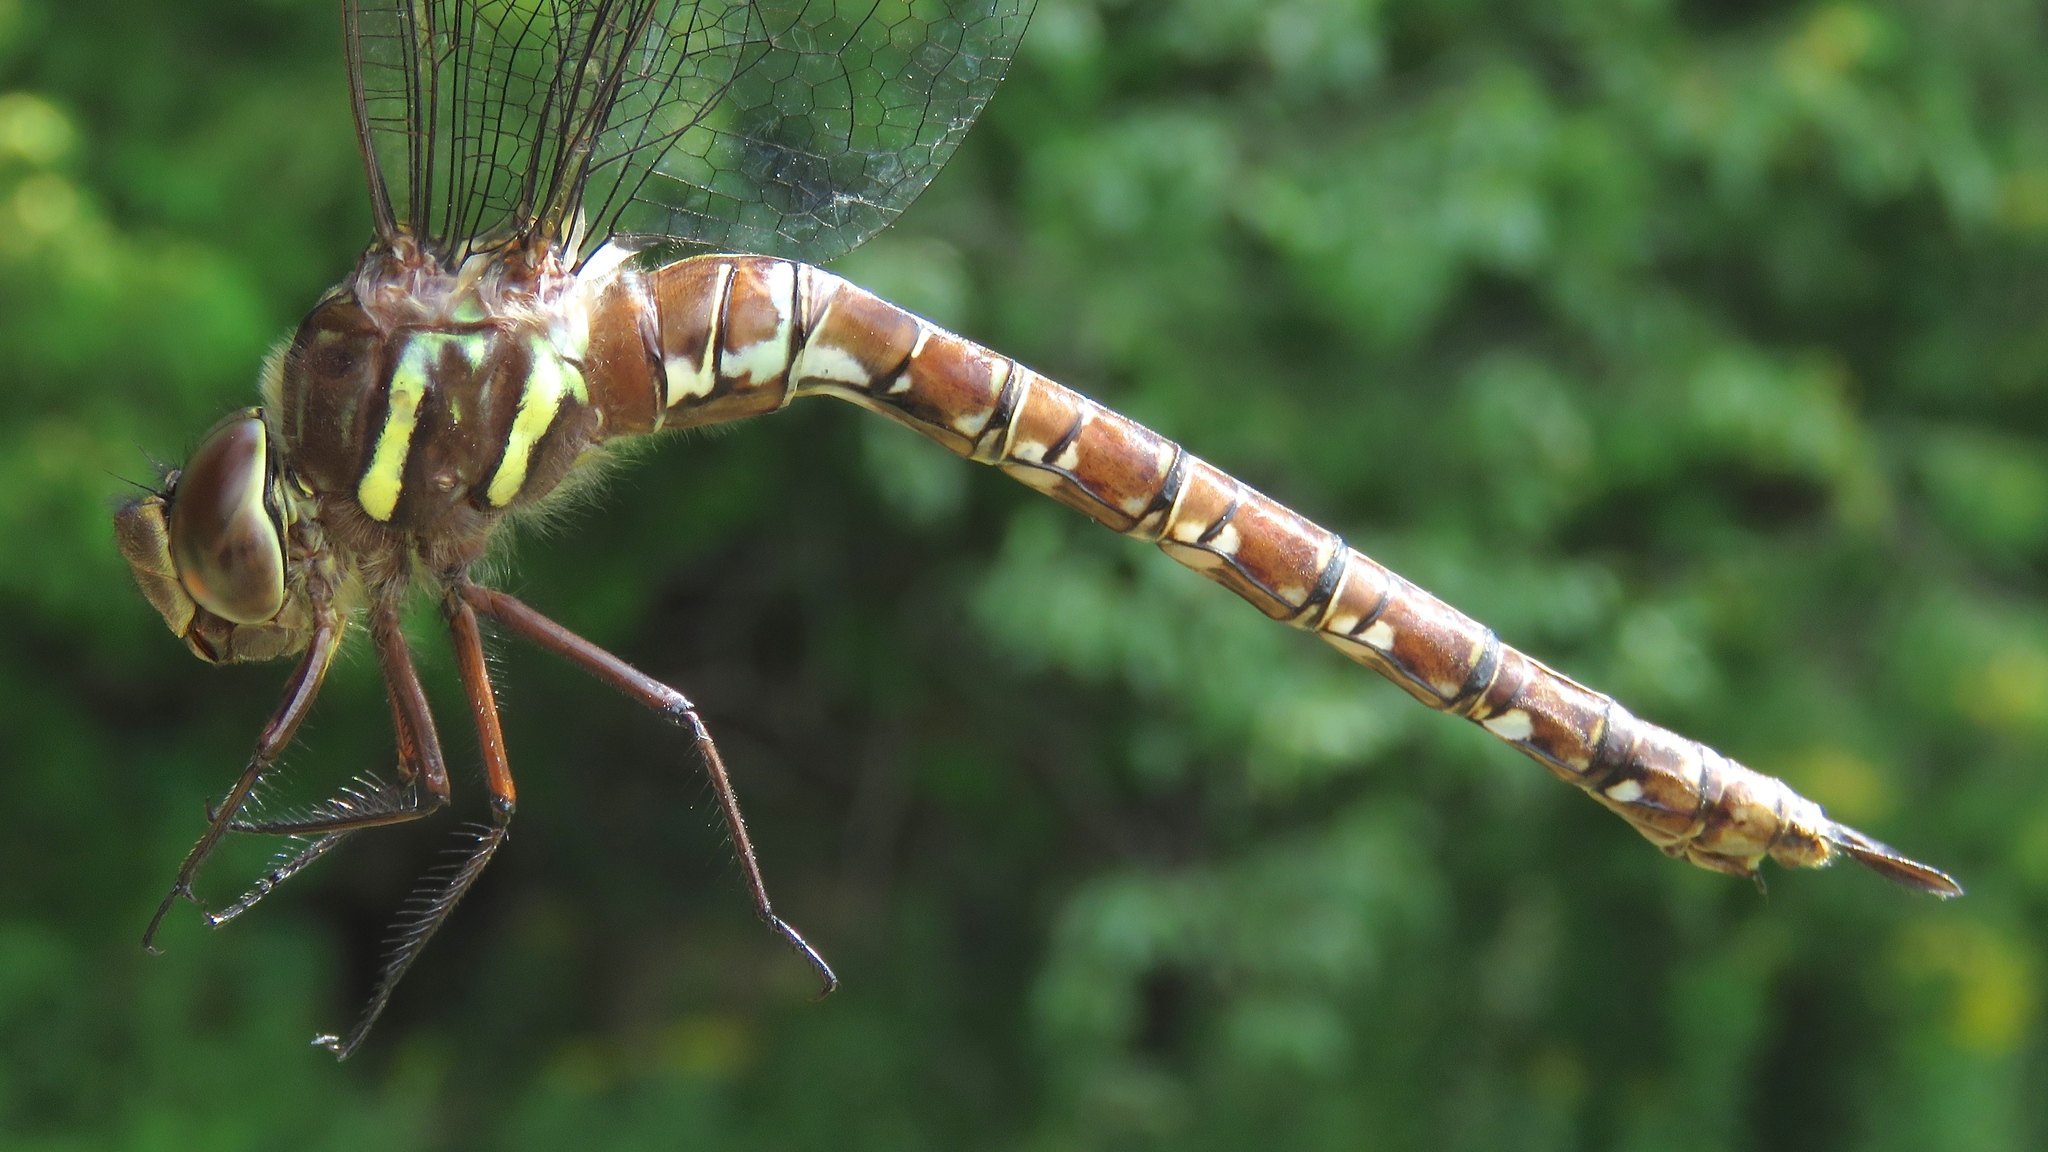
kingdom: Animalia
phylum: Arthropoda
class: Insecta
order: Odonata
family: Aeshnidae
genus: Aeshna
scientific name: Aeshna umbrosa
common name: Shadow darner
